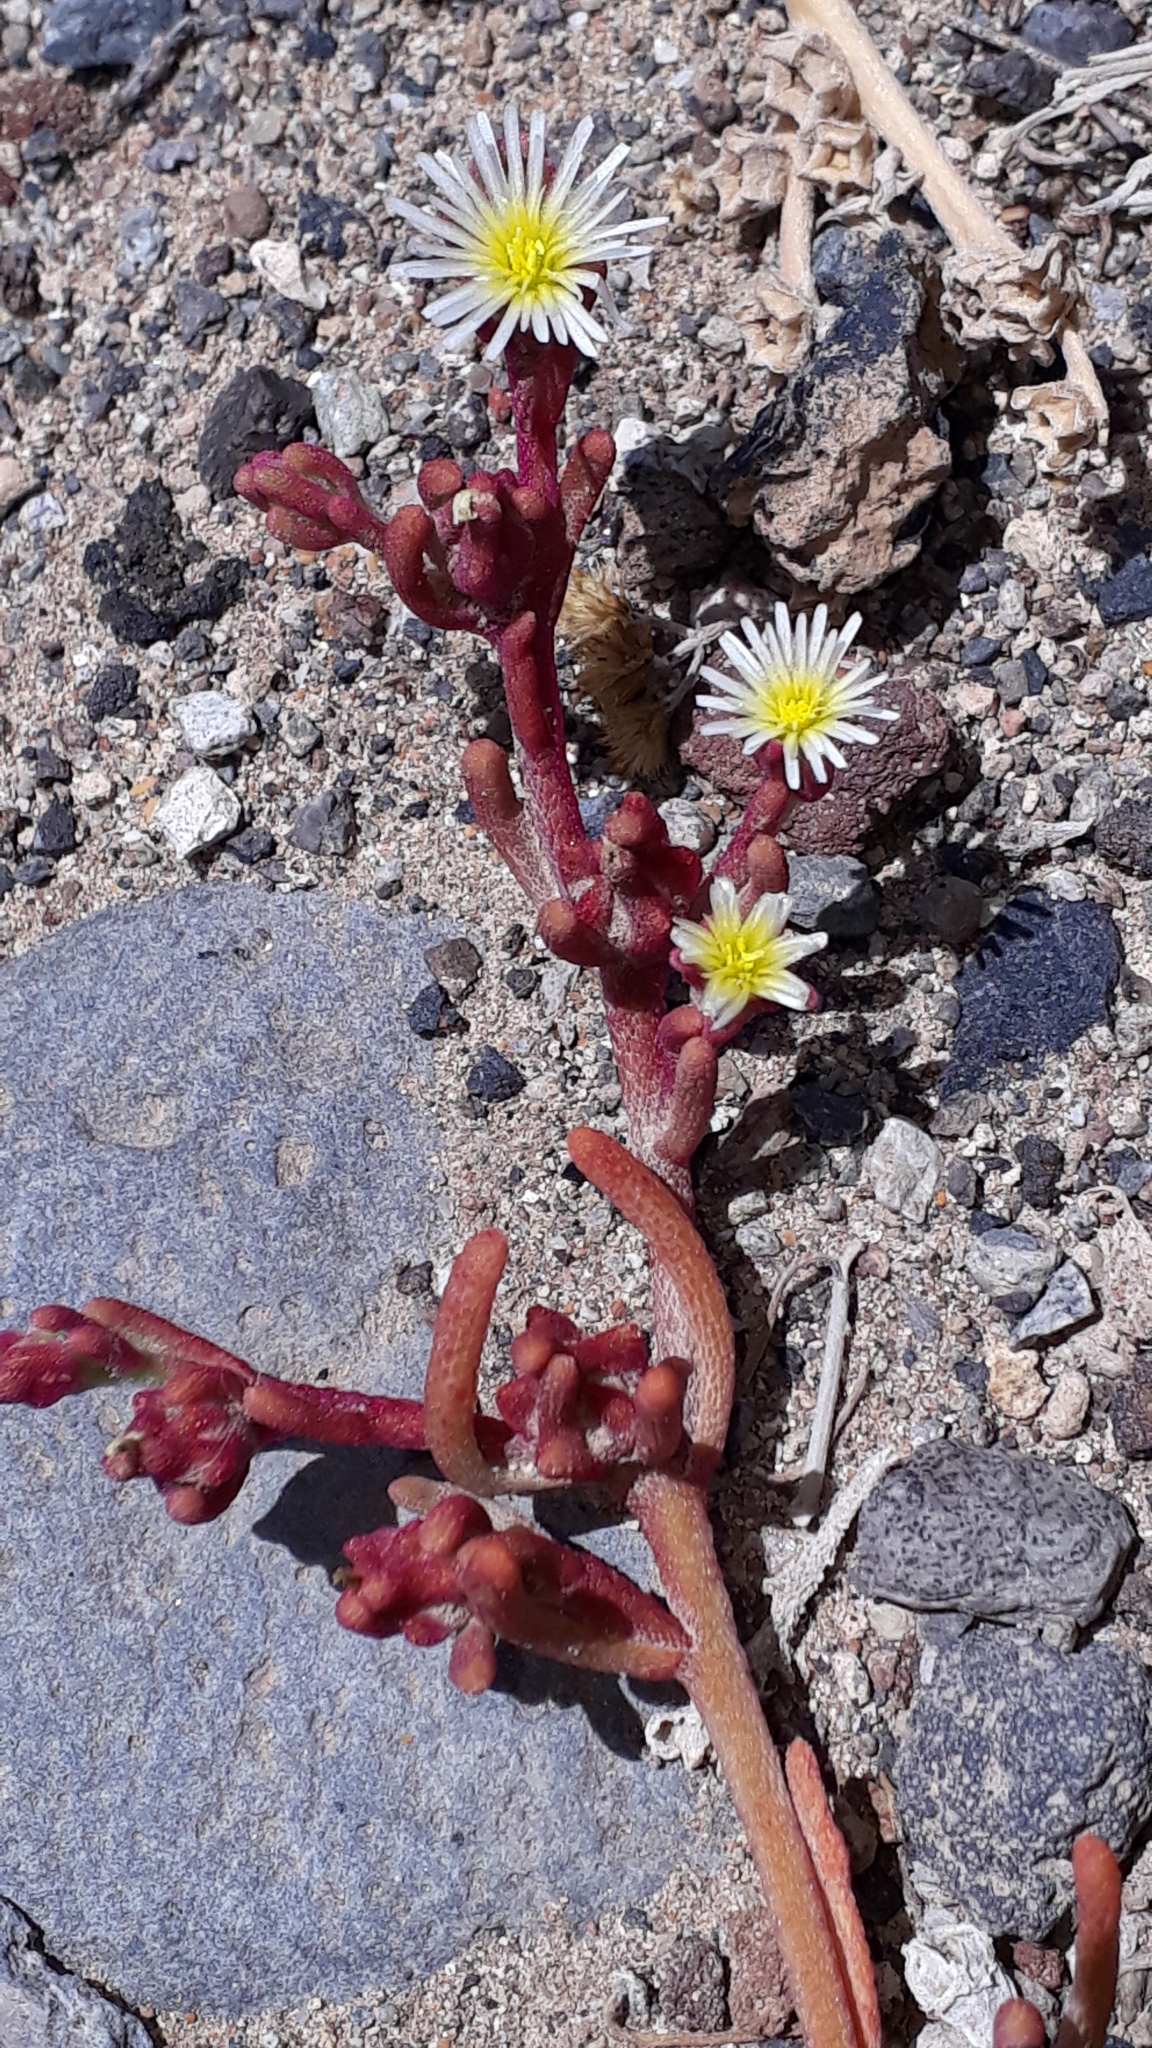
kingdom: Plantae
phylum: Tracheophyta
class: Magnoliopsida
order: Caryophyllales
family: Aizoaceae
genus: Mesembryanthemum
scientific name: Mesembryanthemum nodiflorum
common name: Slenderleaf iceplant
